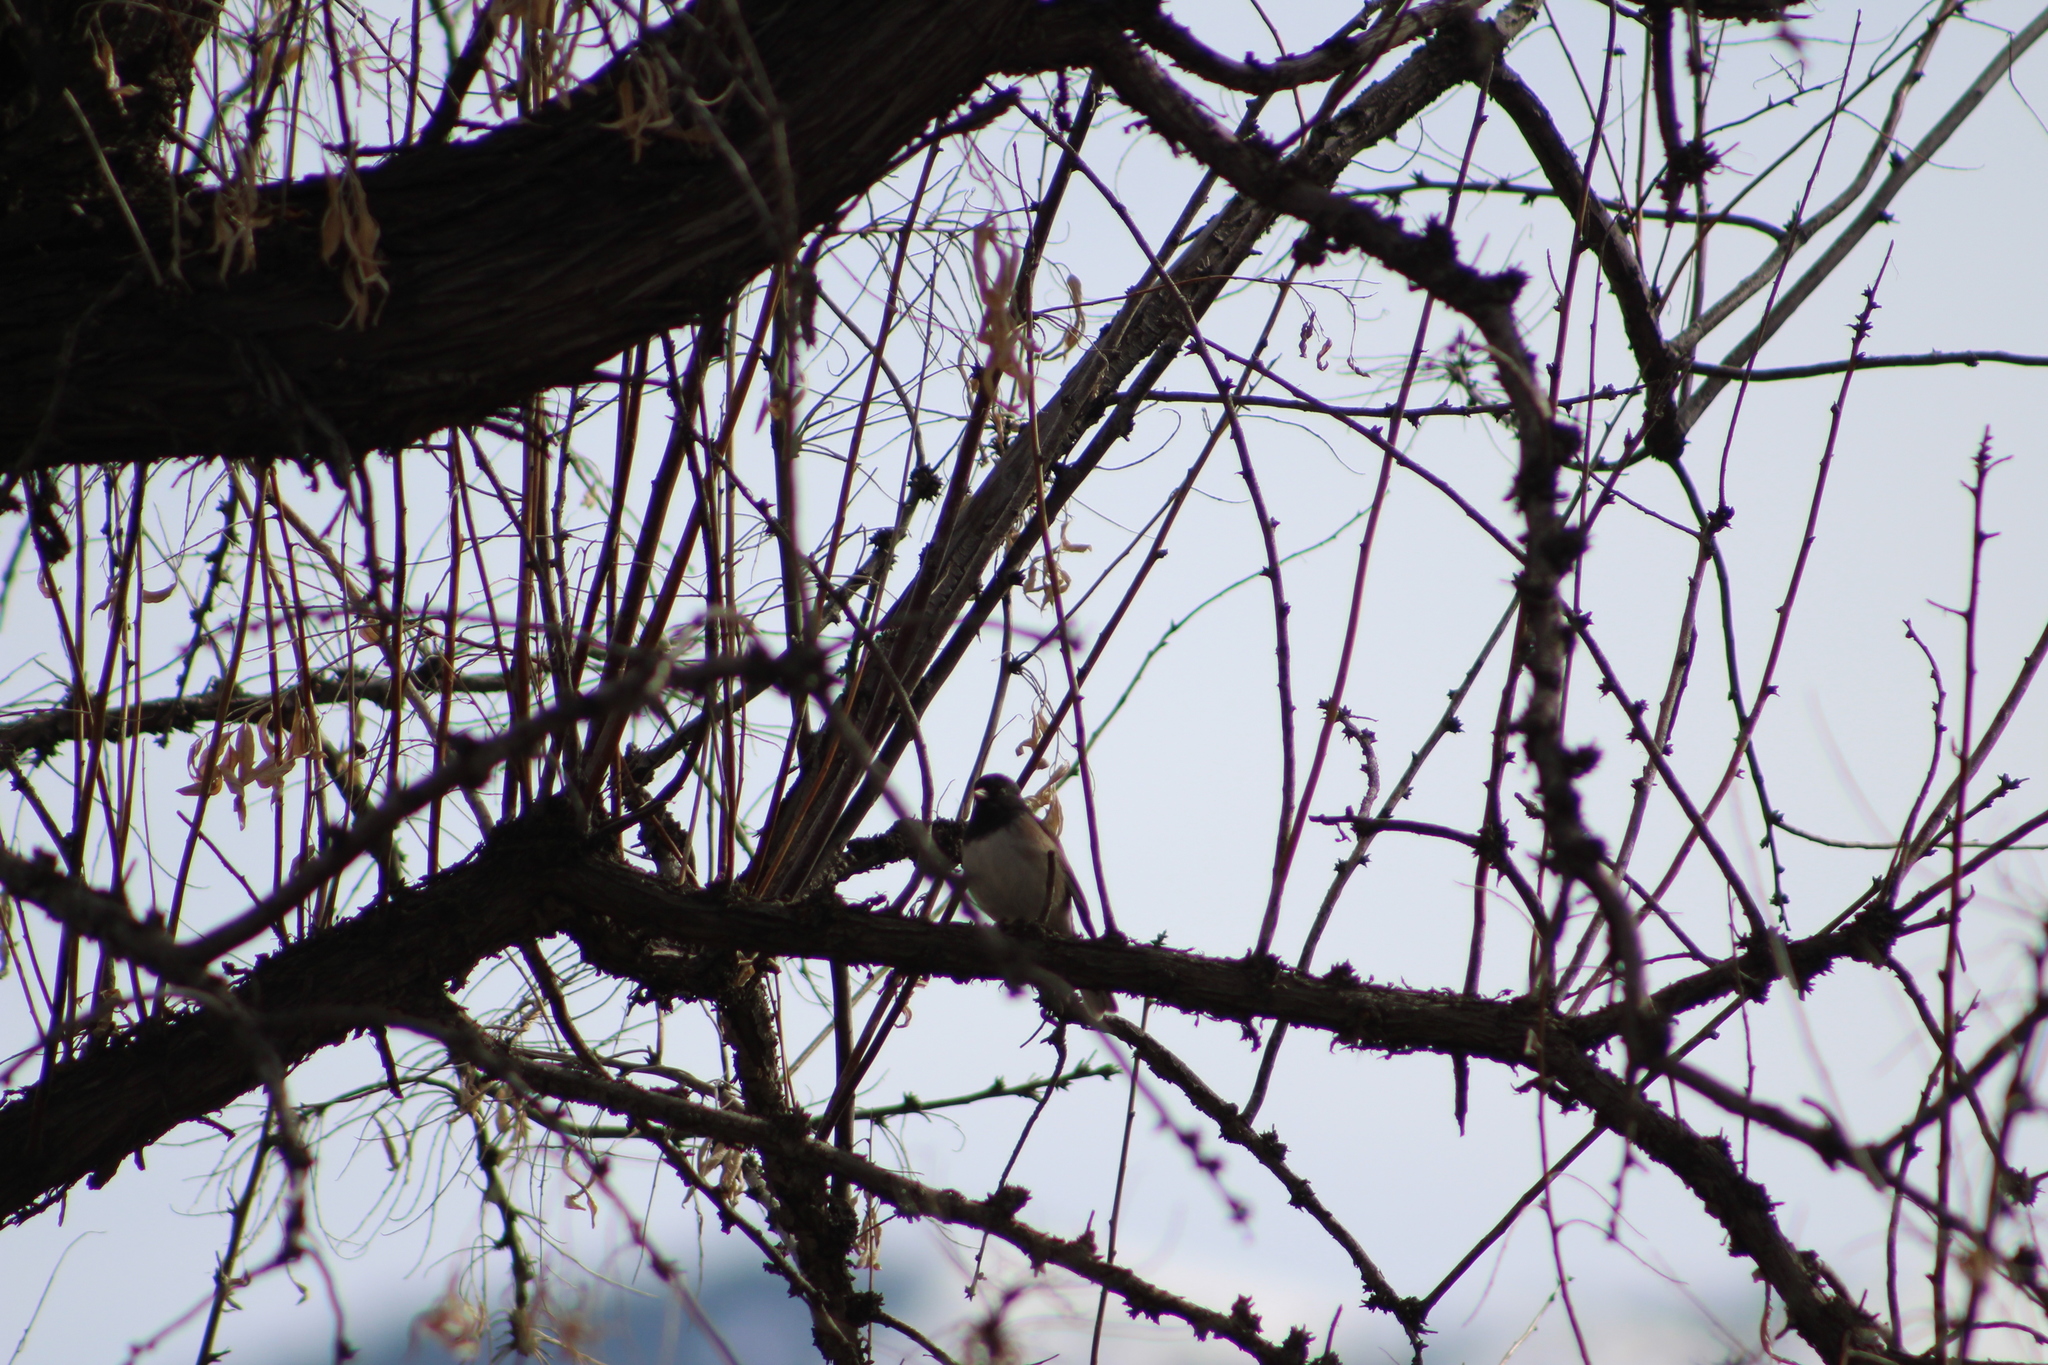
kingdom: Animalia
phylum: Chordata
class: Aves
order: Passeriformes
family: Passerellidae
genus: Junco
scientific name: Junco hyemalis
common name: Dark-eyed junco
